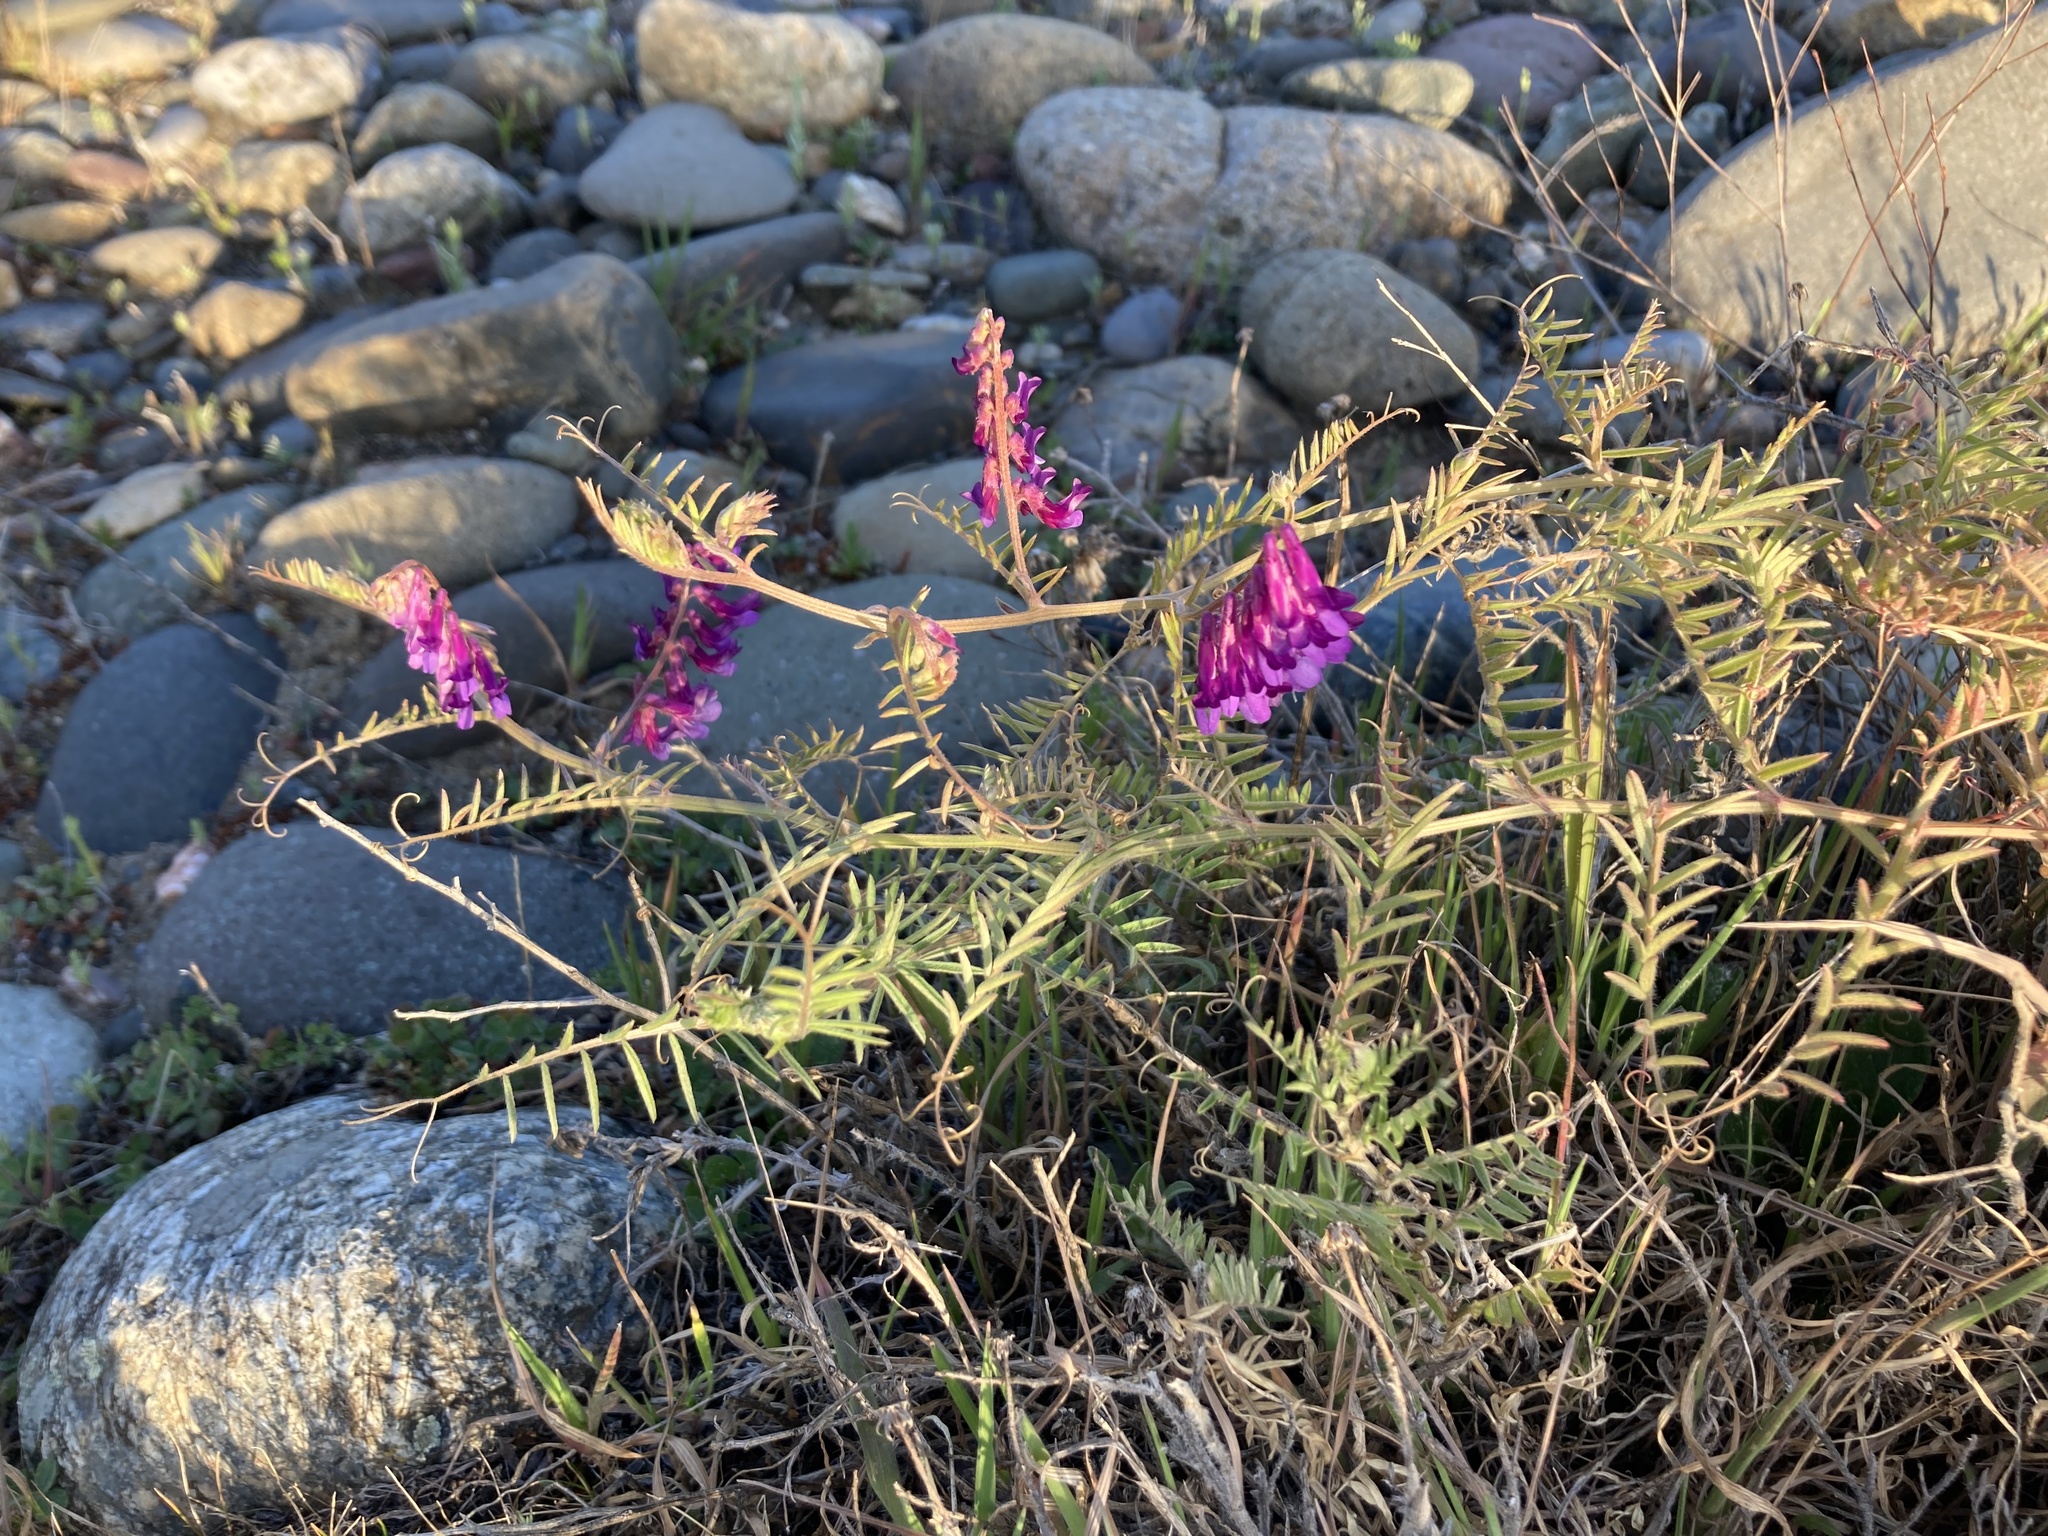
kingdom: Plantae
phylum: Tracheophyta
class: Magnoliopsida
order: Fabales
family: Fabaceae
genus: Vicia
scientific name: Vicia villosa
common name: Fodder vetch
